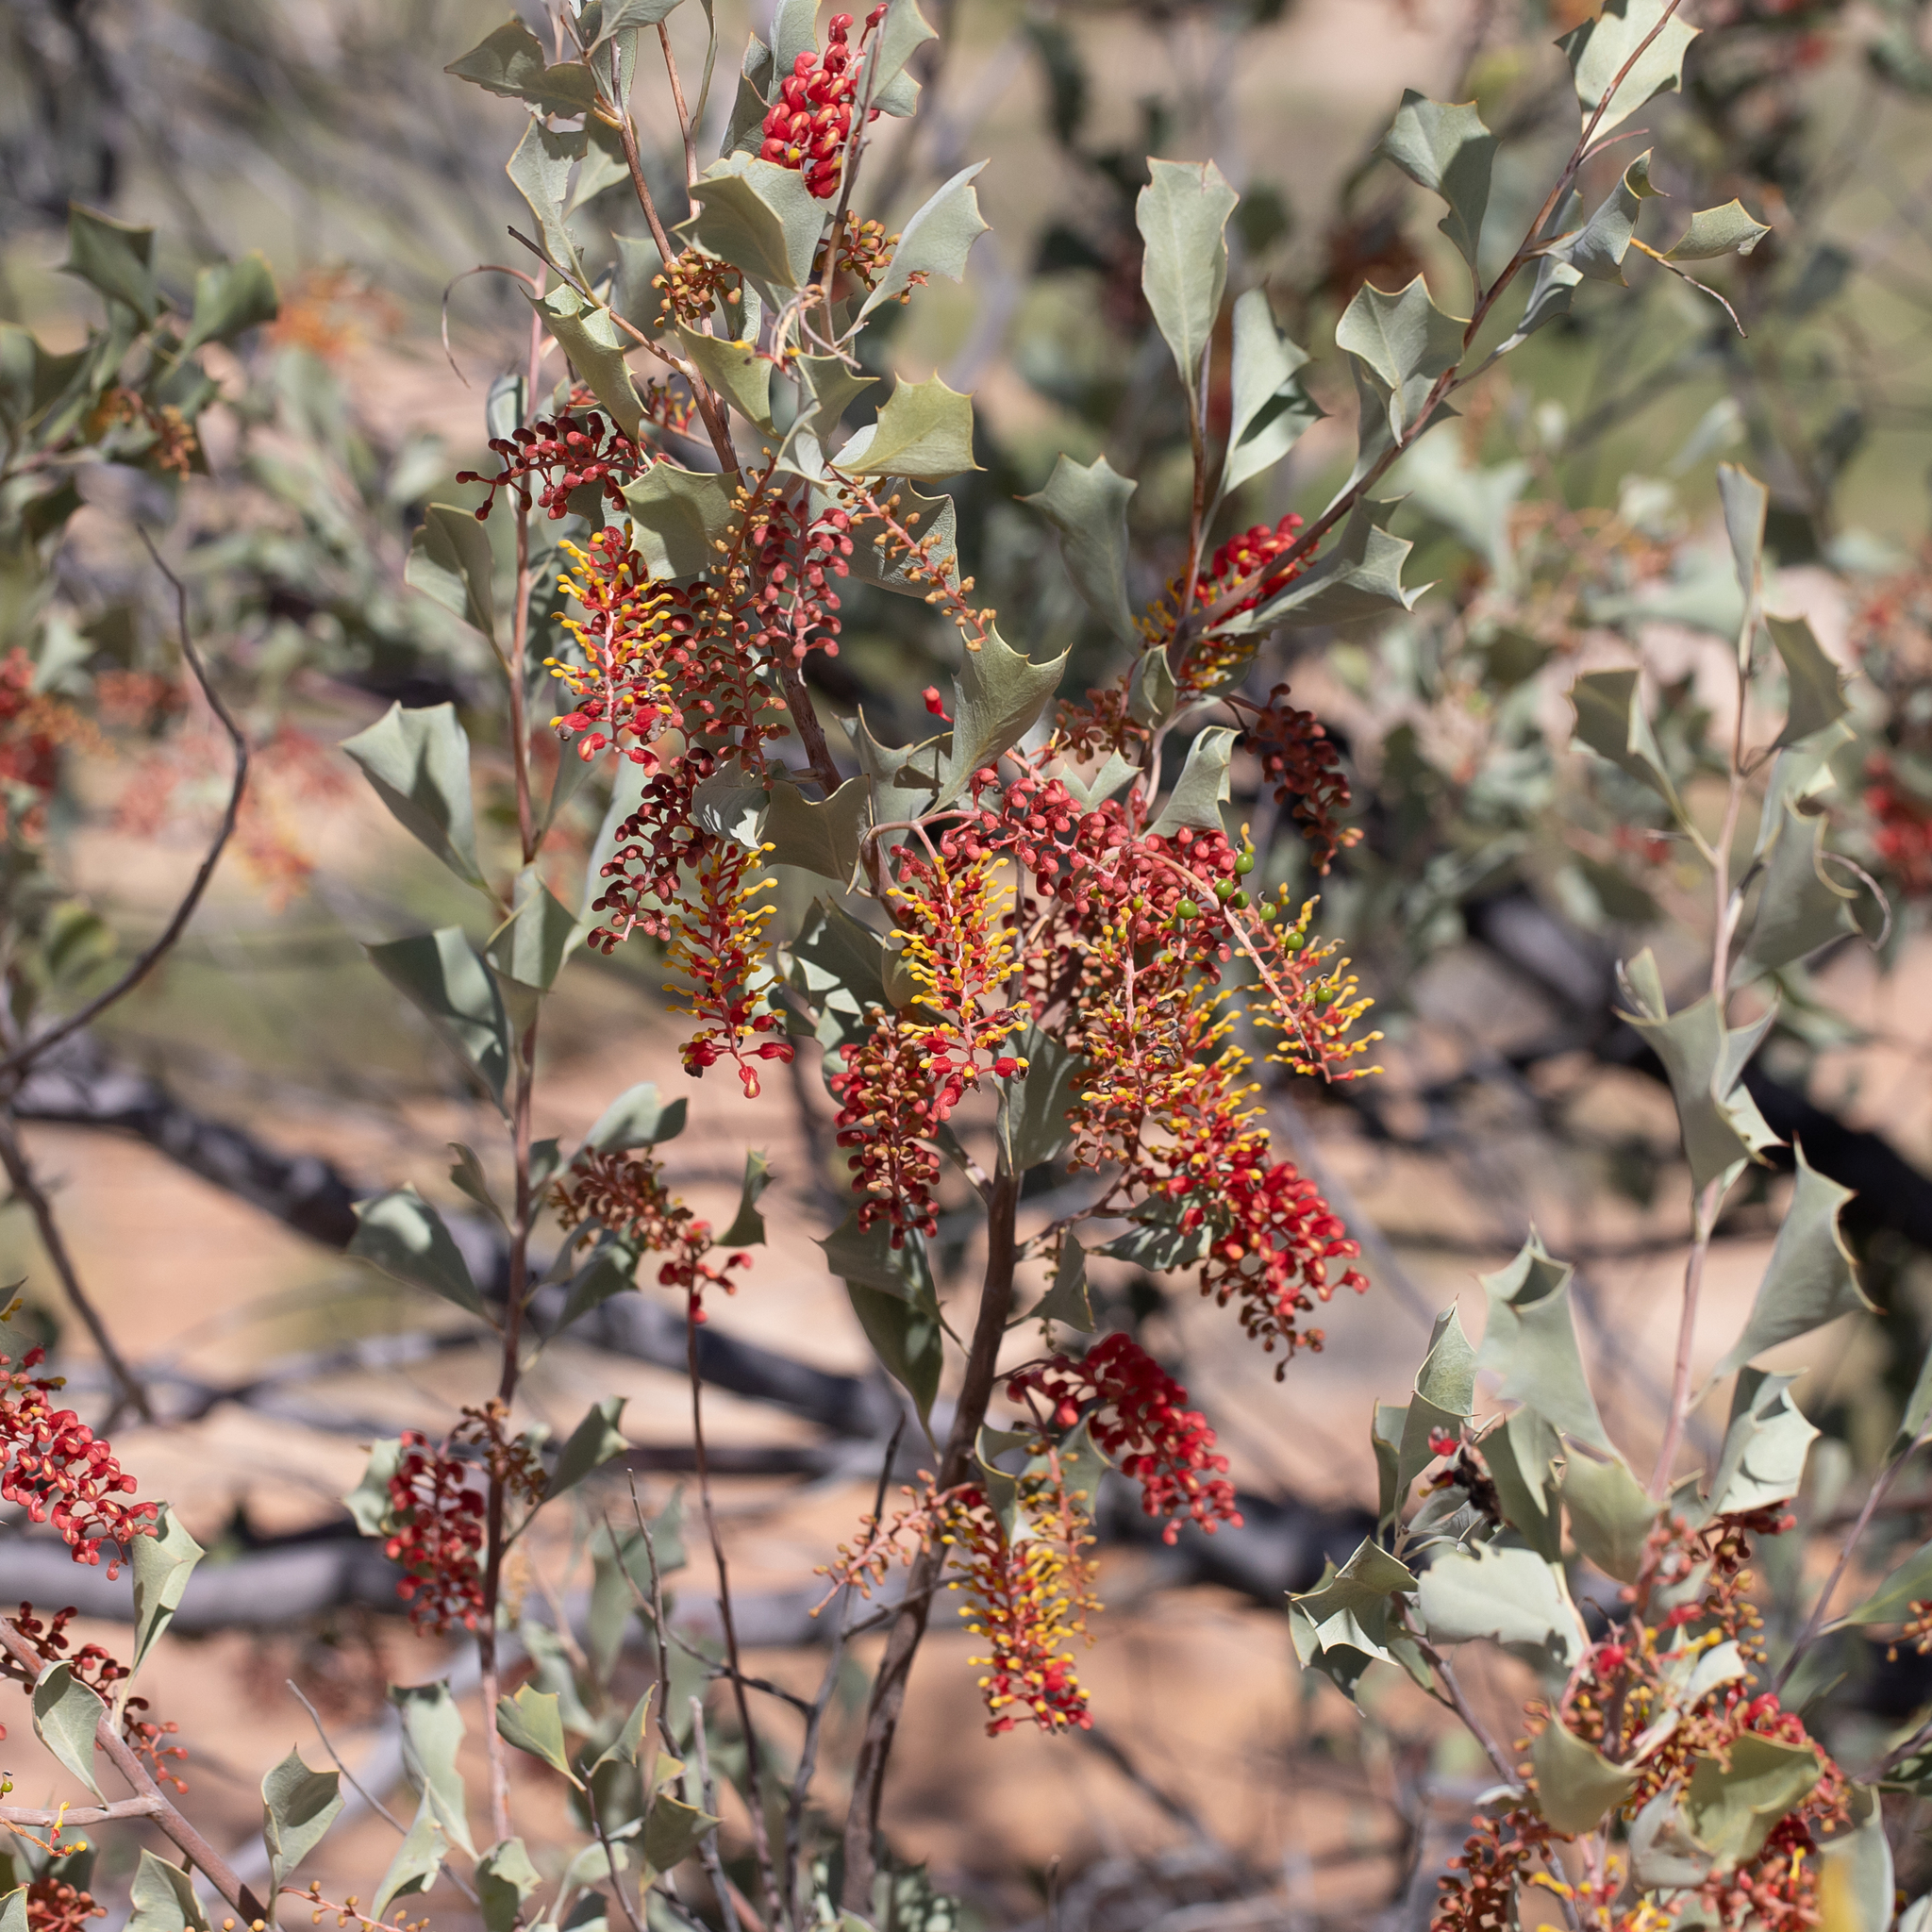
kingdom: Plantae
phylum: Tracheophyta
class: Magnoliopsida
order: Proteales
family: Proteaceae
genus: Grevillea
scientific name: Grevillea wickhamii
